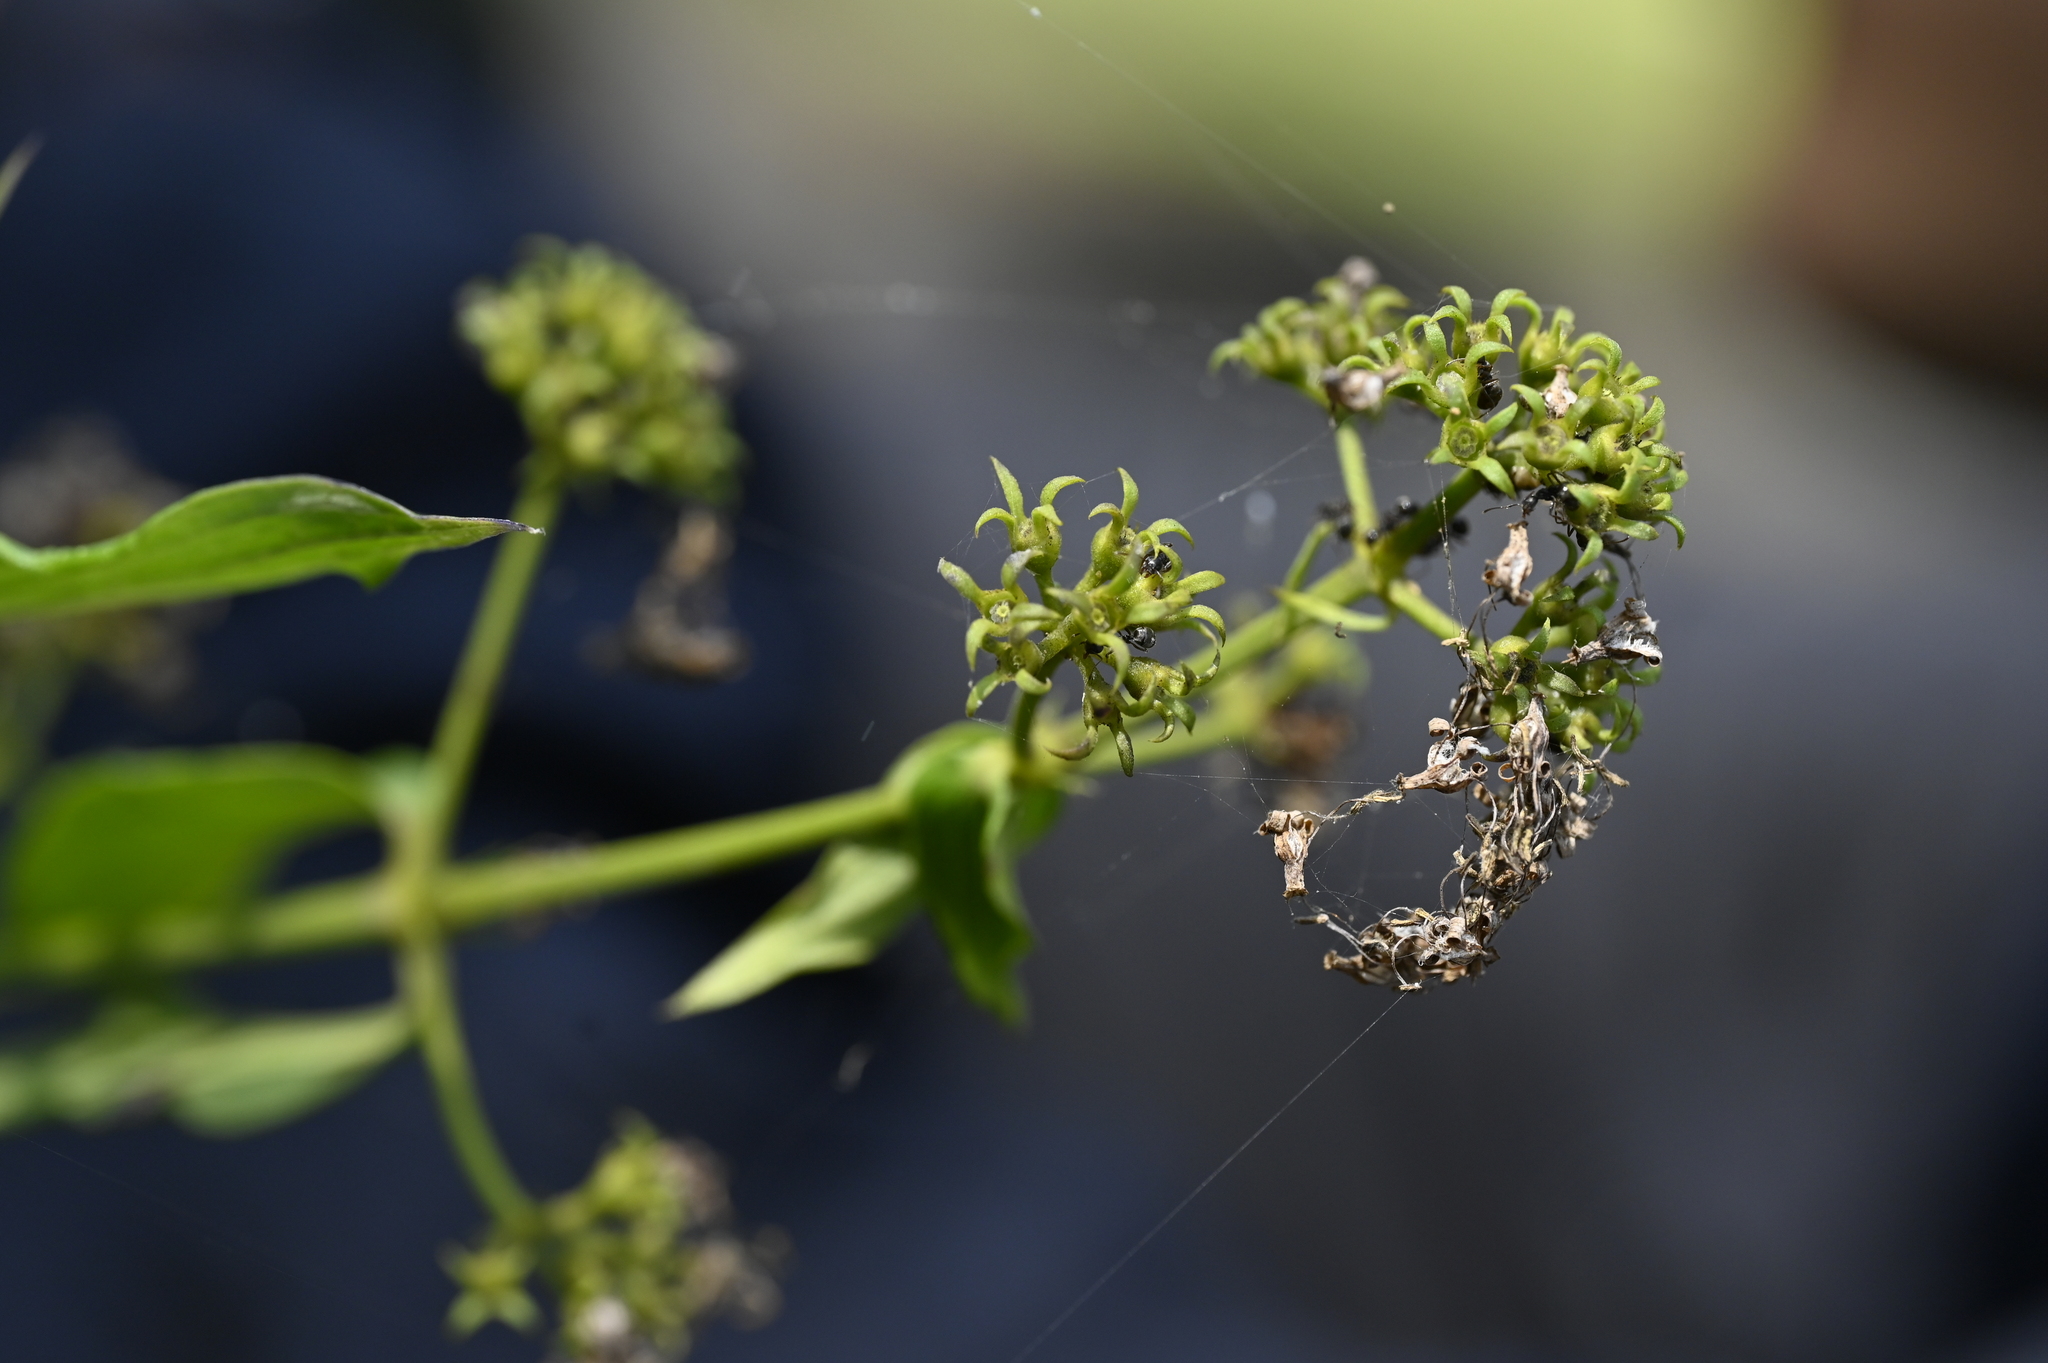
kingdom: Plantae
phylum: Tracheophyta
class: Magnoliopsida
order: Gentianales
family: Rubiaceae
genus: Dimetia
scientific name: Dimetia hedyotidea
